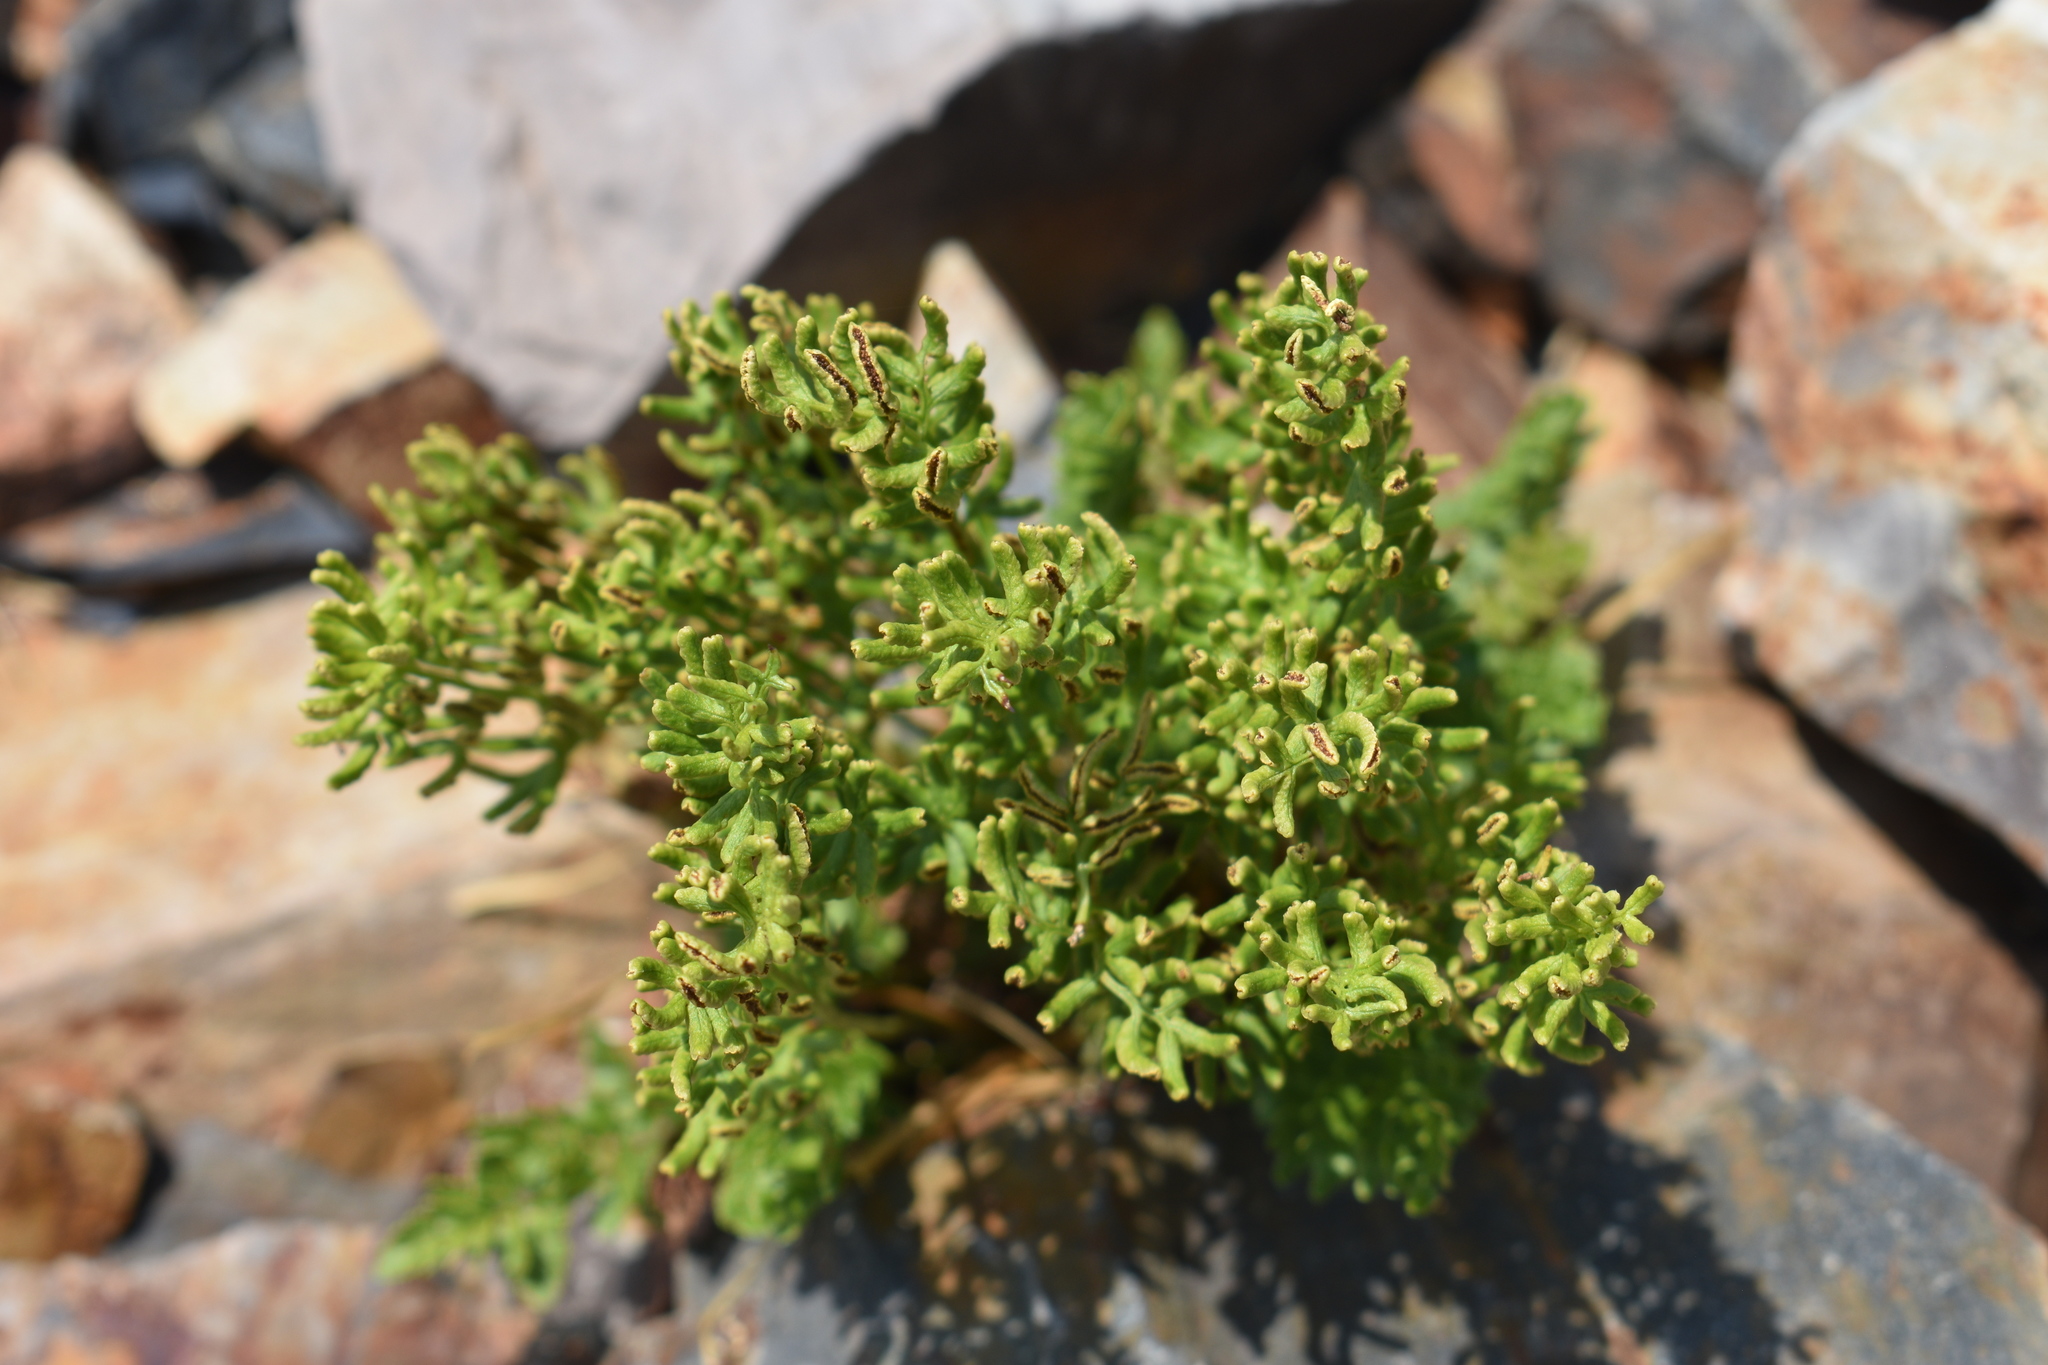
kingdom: Plantae
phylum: Tracheophyta
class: Polypodiopsida
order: Polypodiales
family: Pteridaceae
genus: Cryptogramma
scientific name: Cryptogramma acrostichoides
